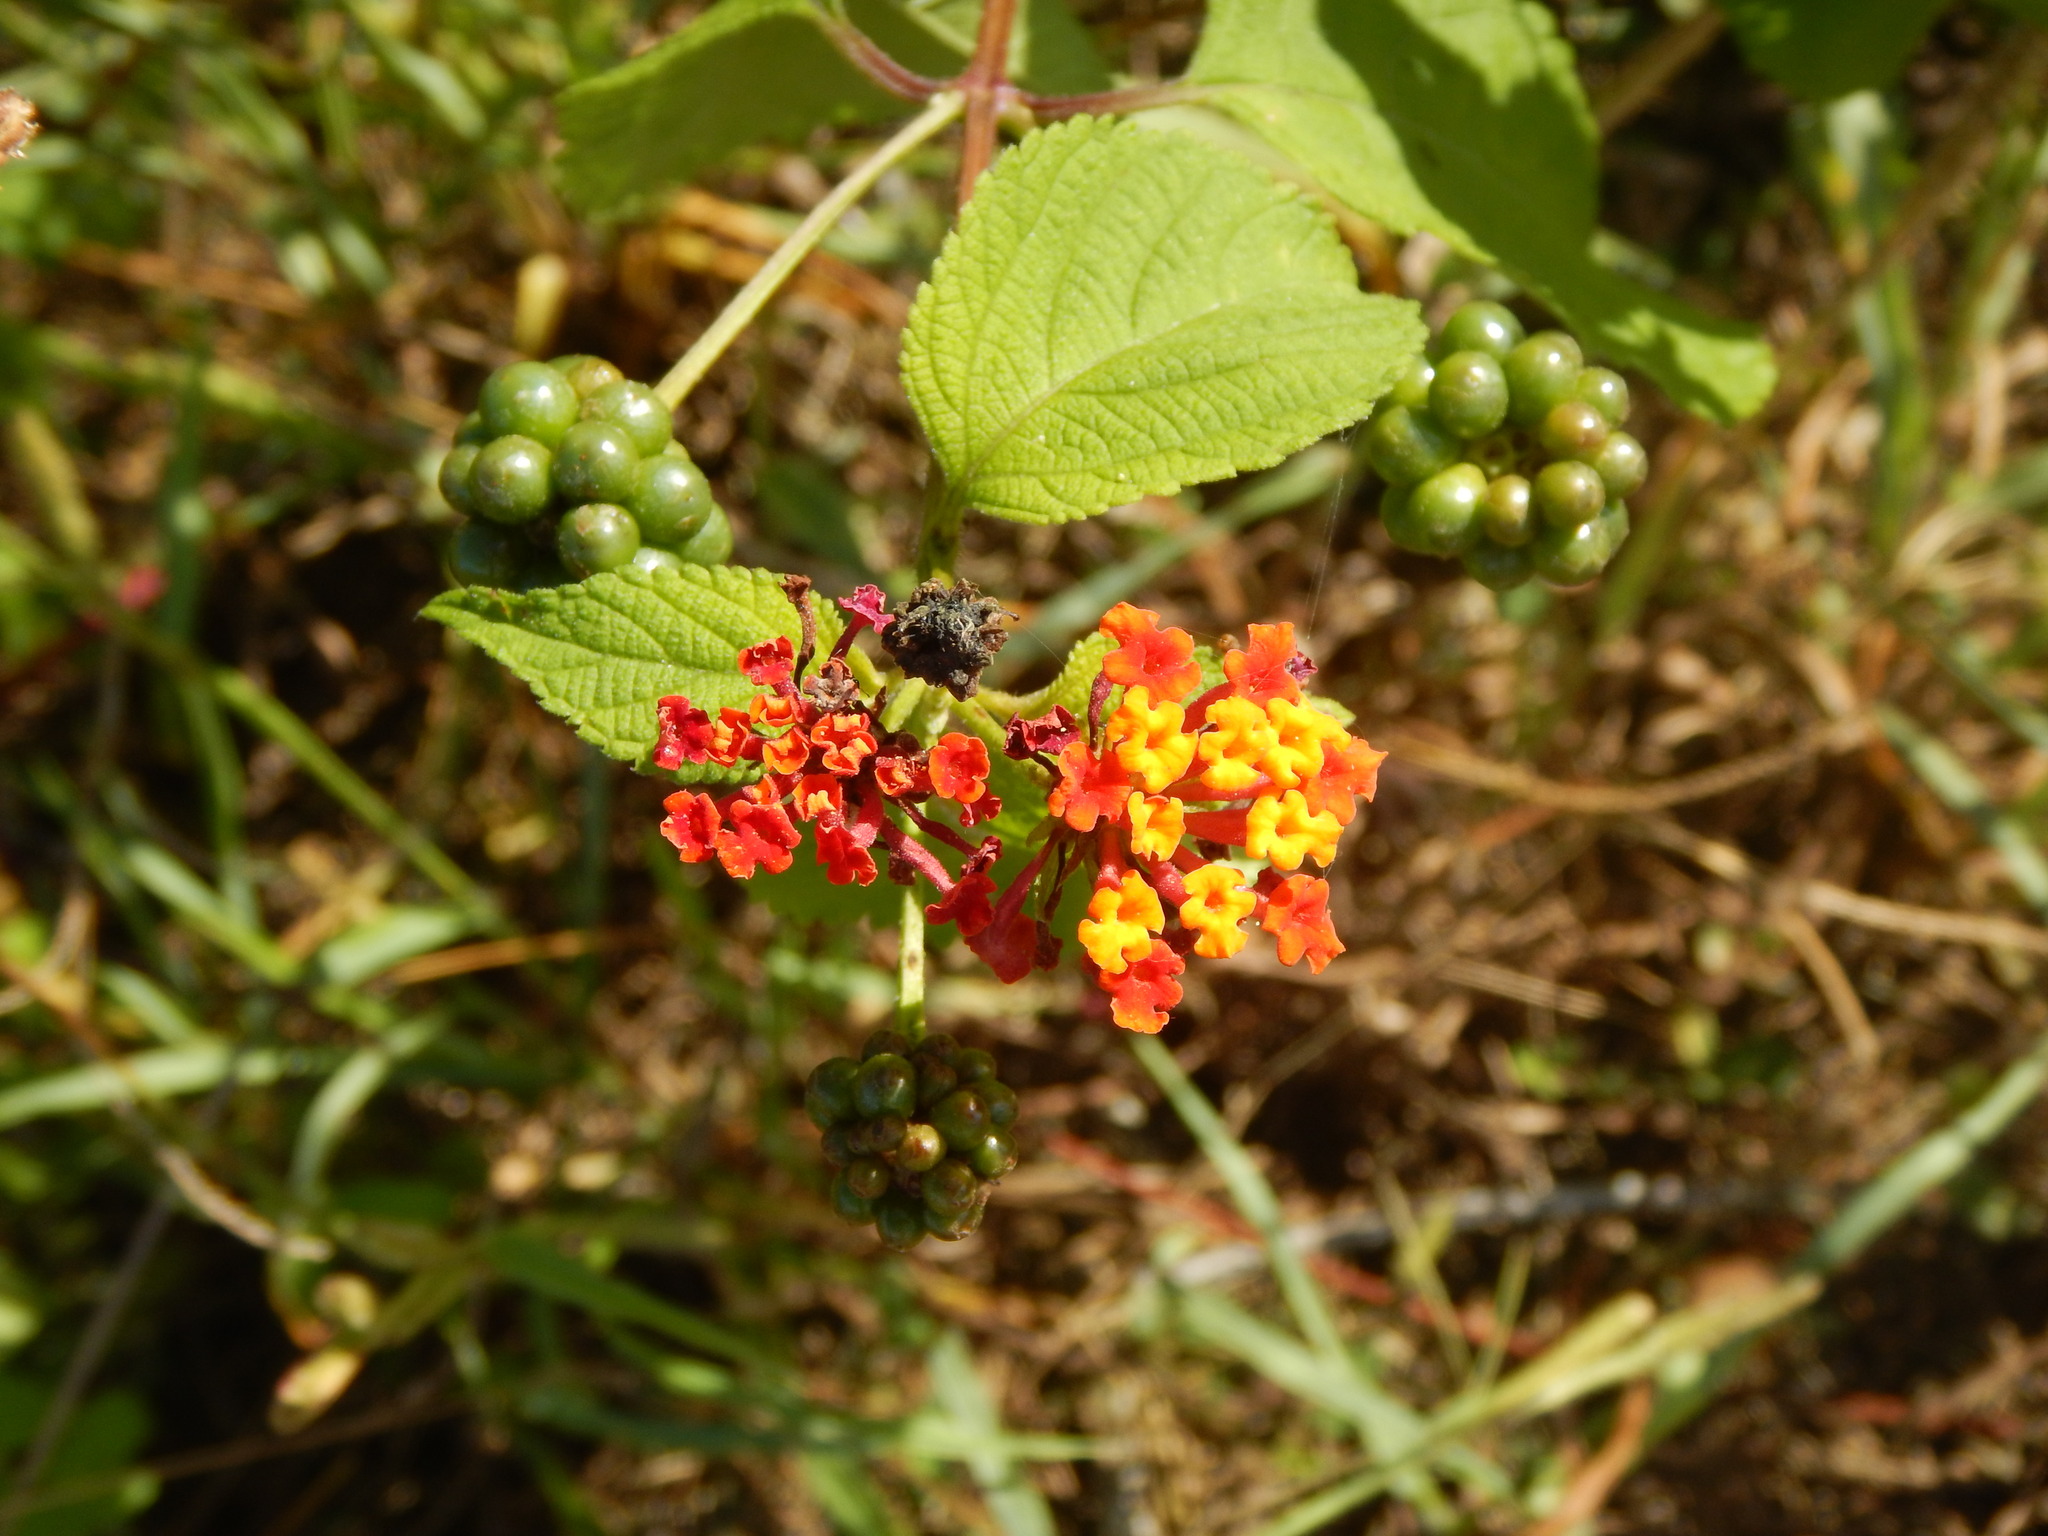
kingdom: Plantae
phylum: Tracheophyta
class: Magnoliopsida
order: Lamiales
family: Verbenaceae
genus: Lantana
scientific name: Lantana camara
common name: Lantana
